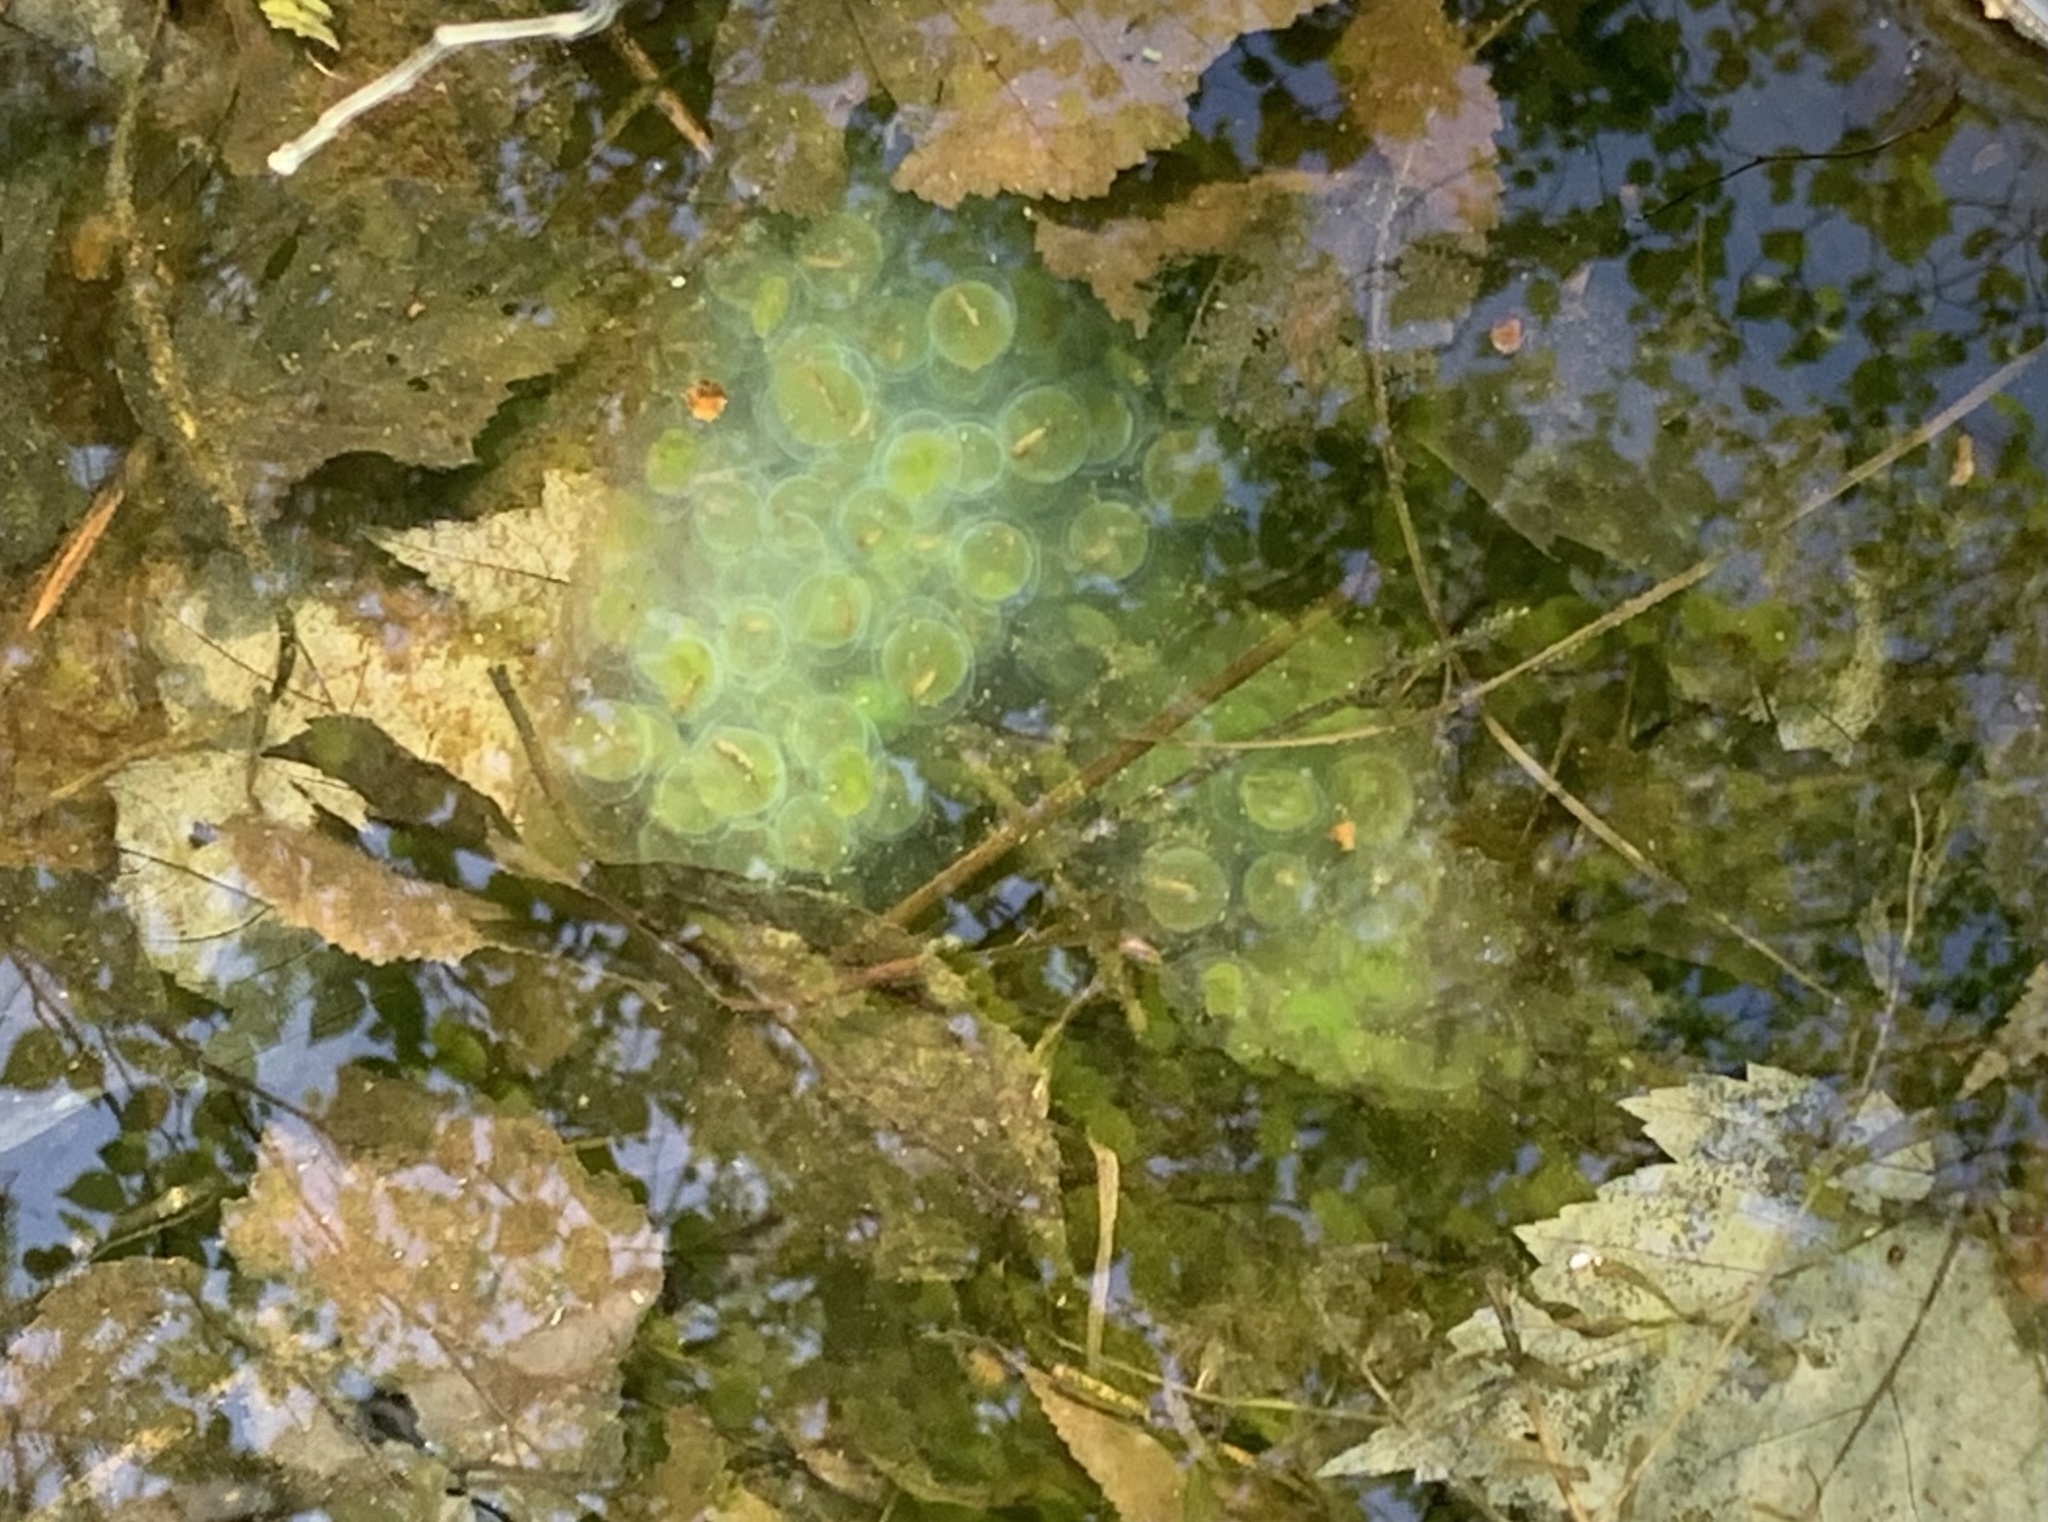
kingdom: Animalia
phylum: Chordata
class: Amphibia
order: Caudata
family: Ambystomatidae
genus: Ambystoma
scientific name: Ambystoma maculatum
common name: Spotted salamander
